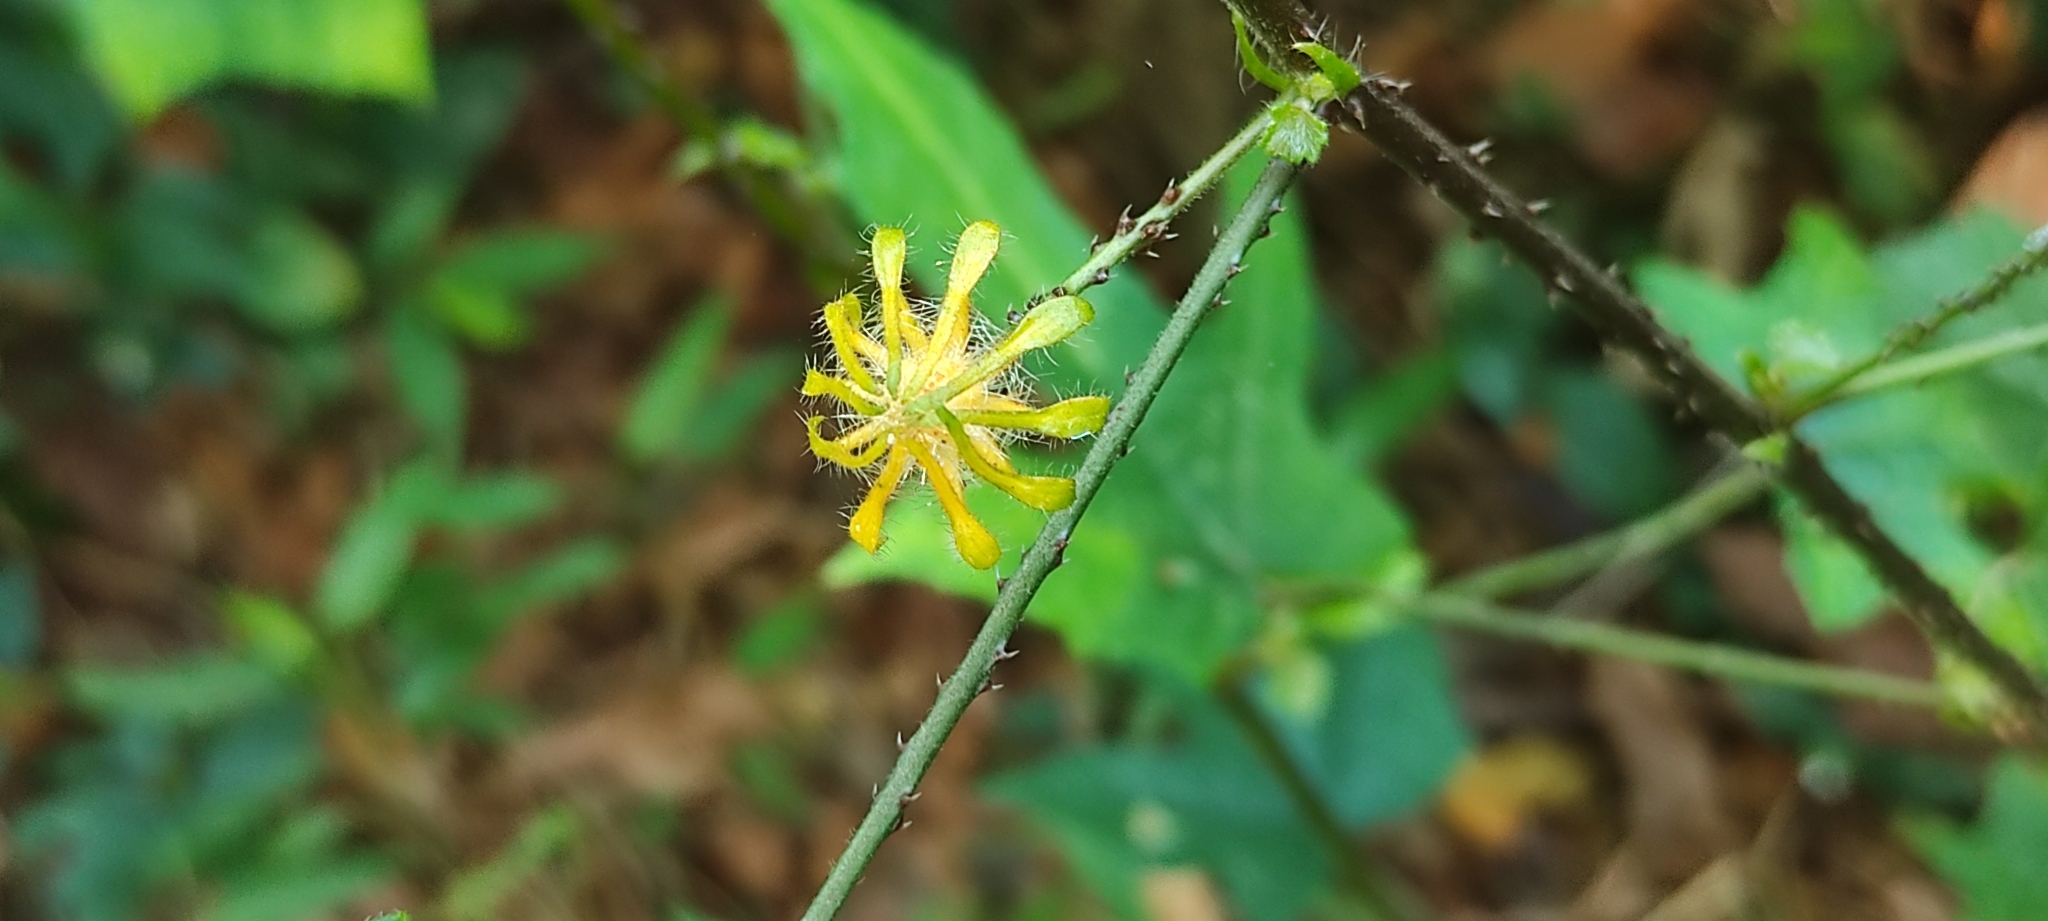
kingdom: Plantae
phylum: Tracheophyta
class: Magnoliopsida
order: Malvales
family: Malvaceae
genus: Hibiscus
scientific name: Hibiscus surattensis
